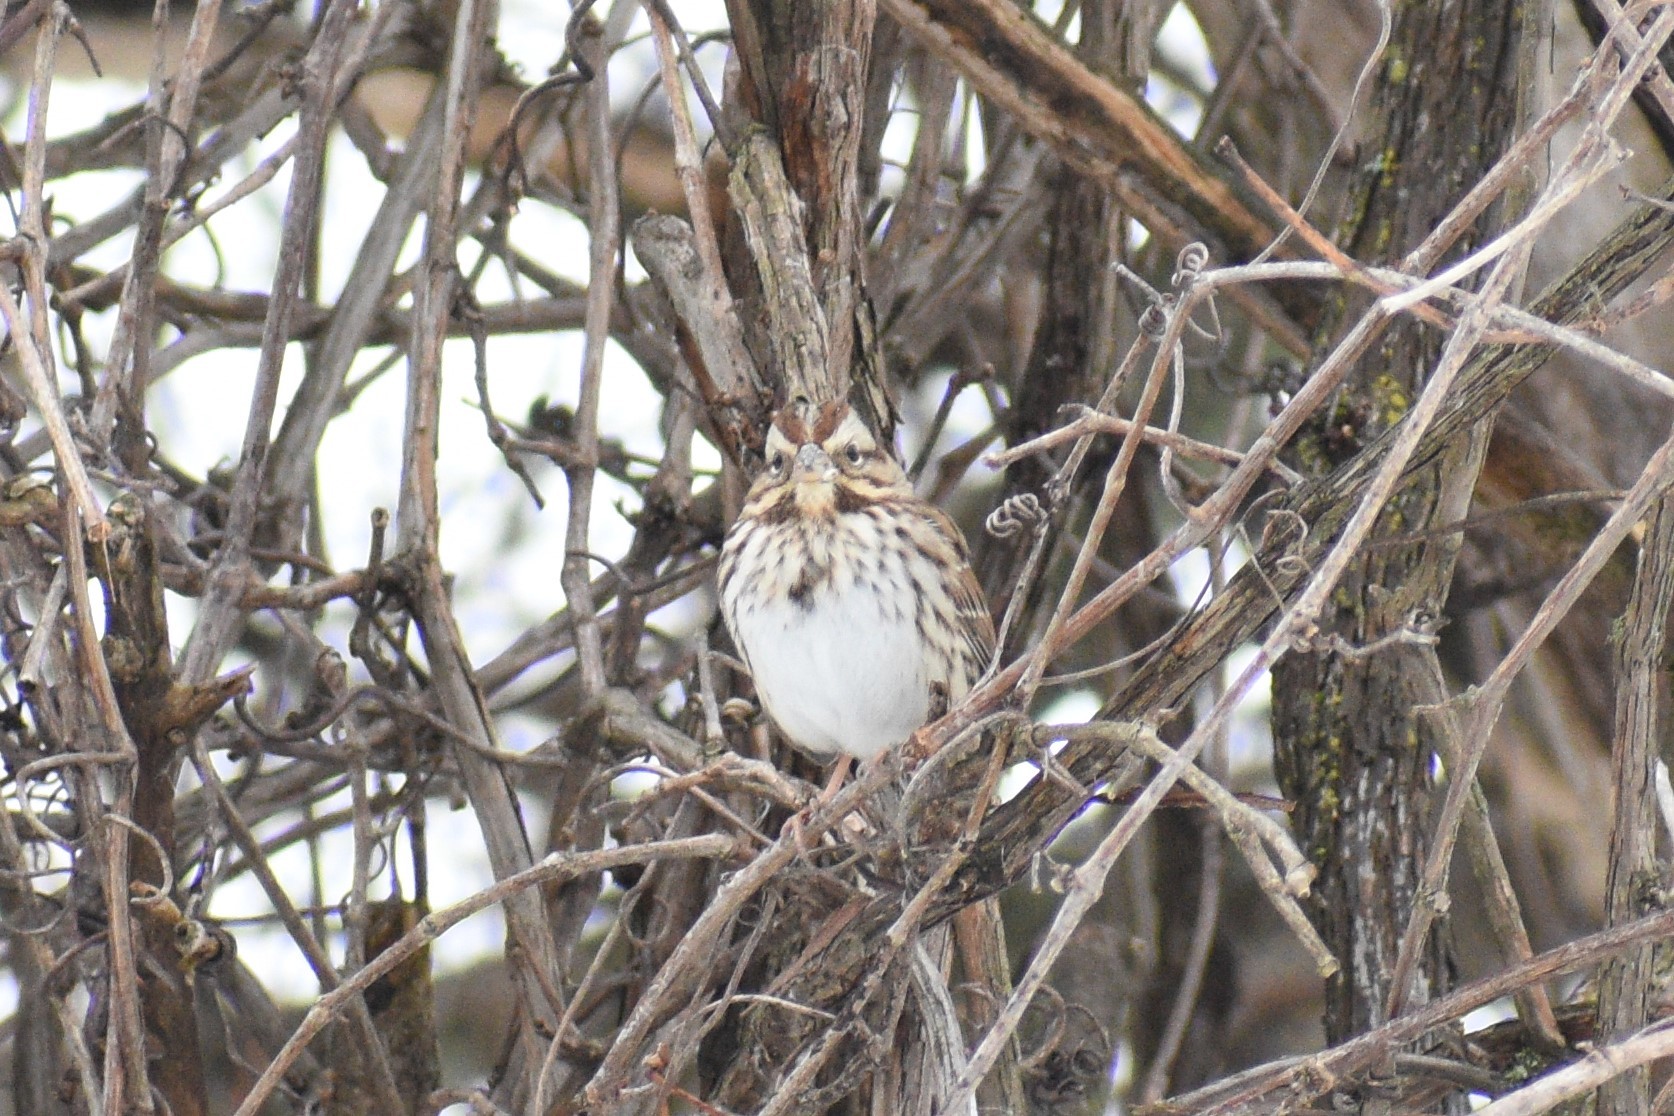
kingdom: Animalia
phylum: Chordata
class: Aves
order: Passeriformes
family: Passerellidae
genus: Melospiza
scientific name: Melospiza melodia
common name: Song sparrow
